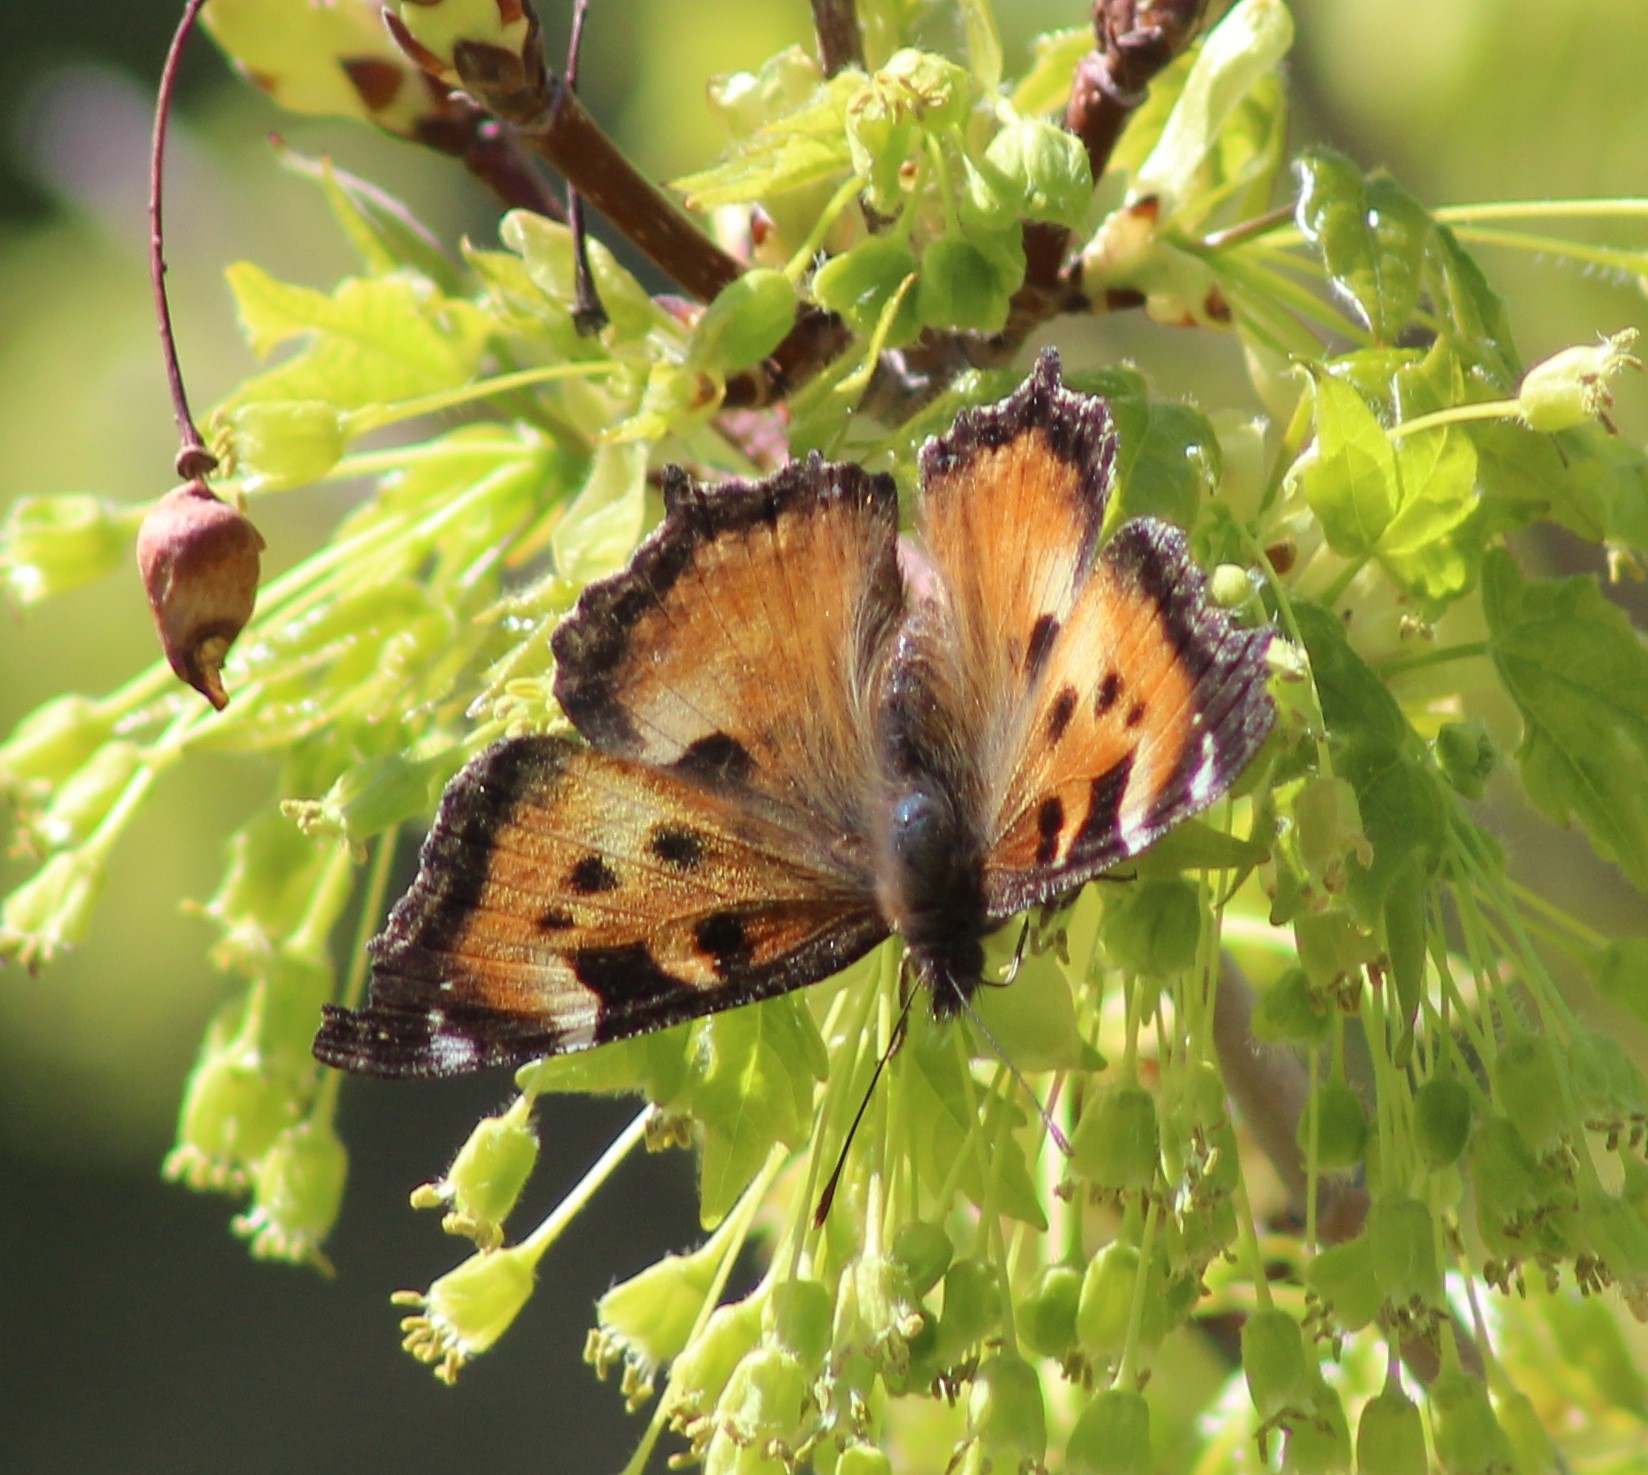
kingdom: Animalia
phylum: Arthropoda
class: Insecta
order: Lepidoptera
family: Nymphalidae
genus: Nymphalis
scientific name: Nymphalis californica
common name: California tortoiseshell
